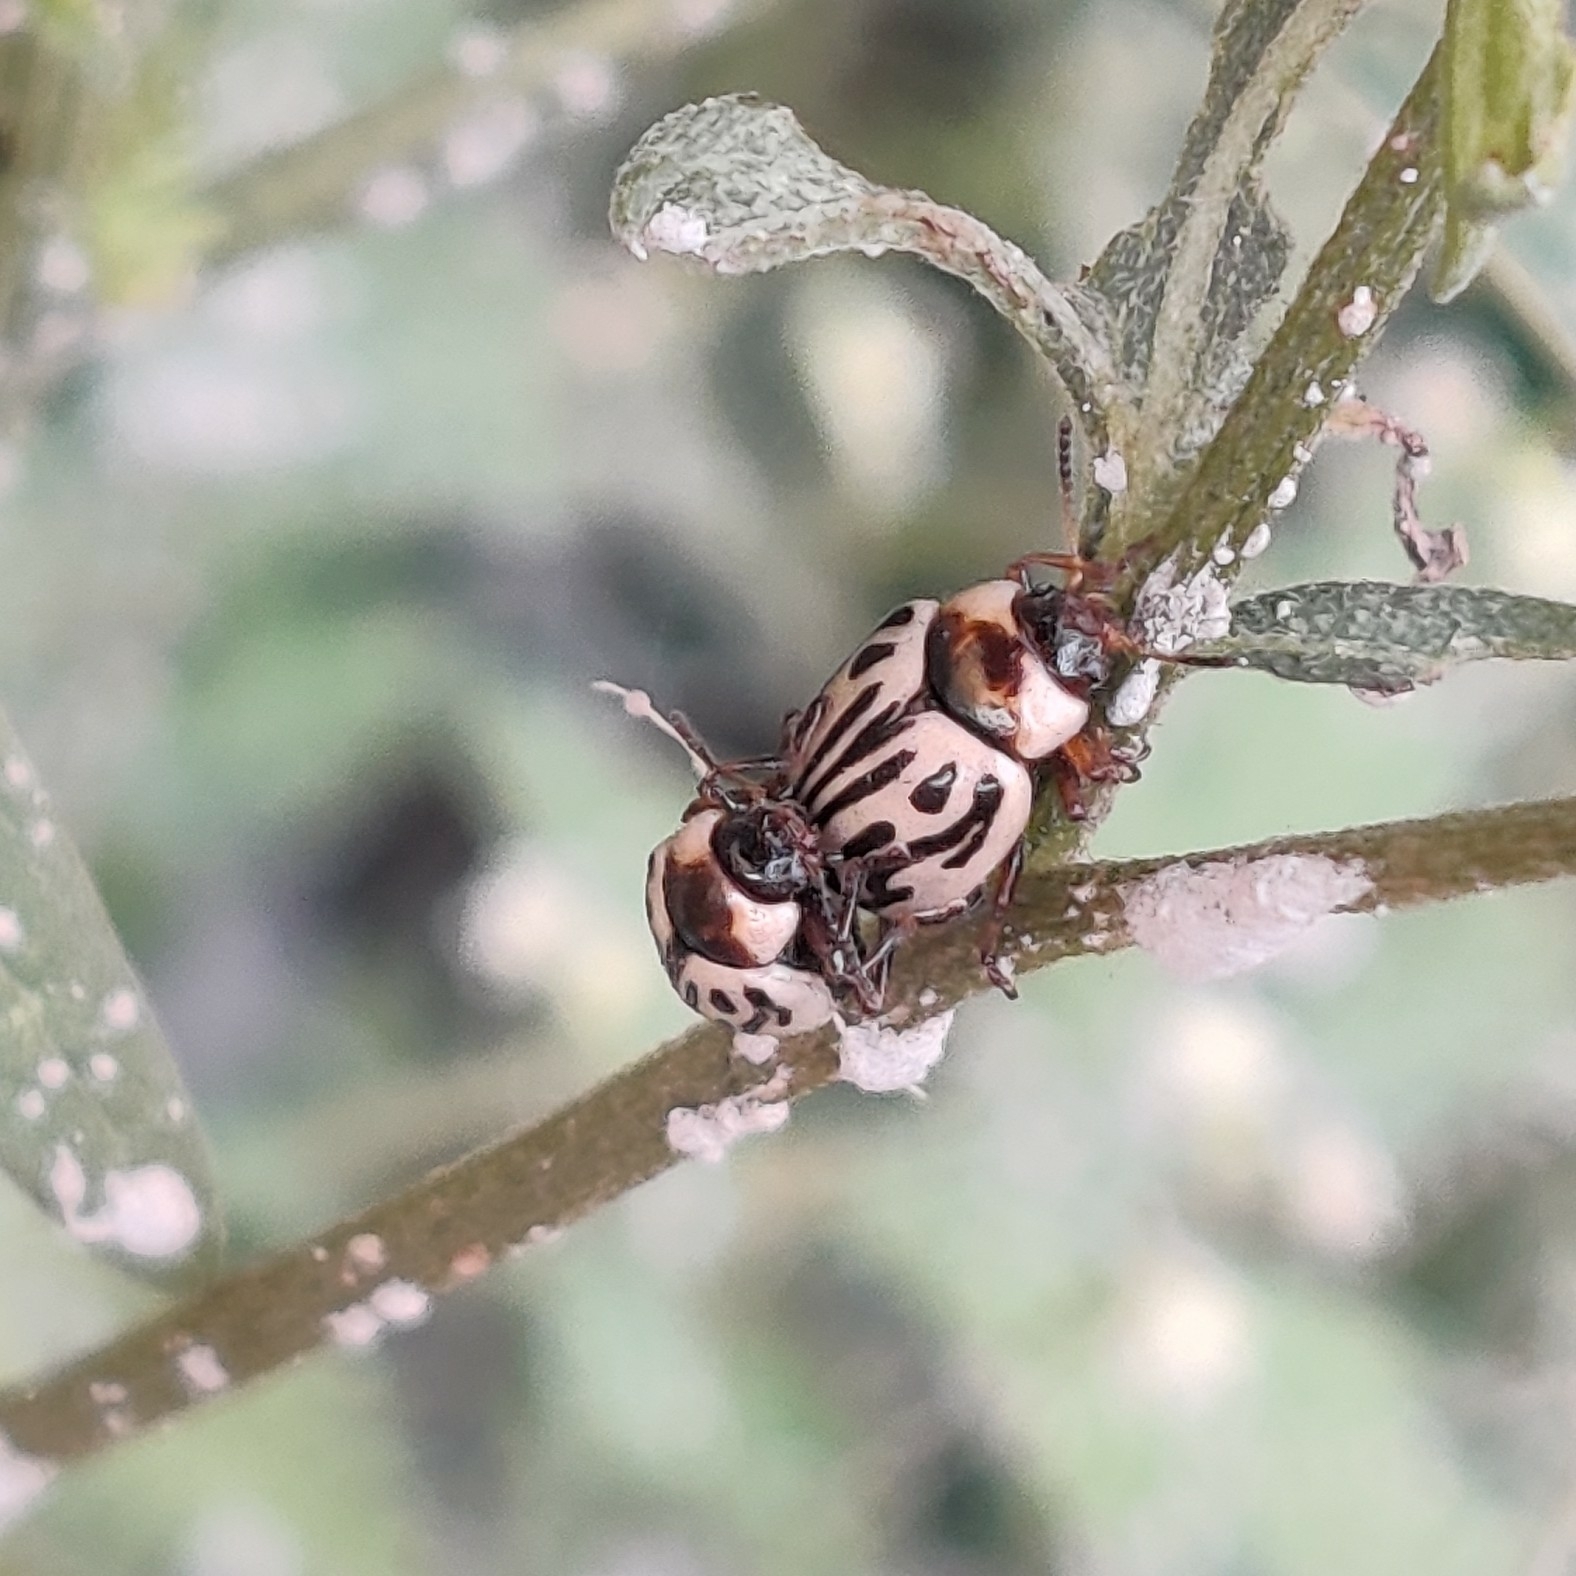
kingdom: Animalia
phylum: Arthropoda
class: Insecta
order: Coleoptera
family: Chrysomelidae
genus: Calligrapha
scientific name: Calligrapha
